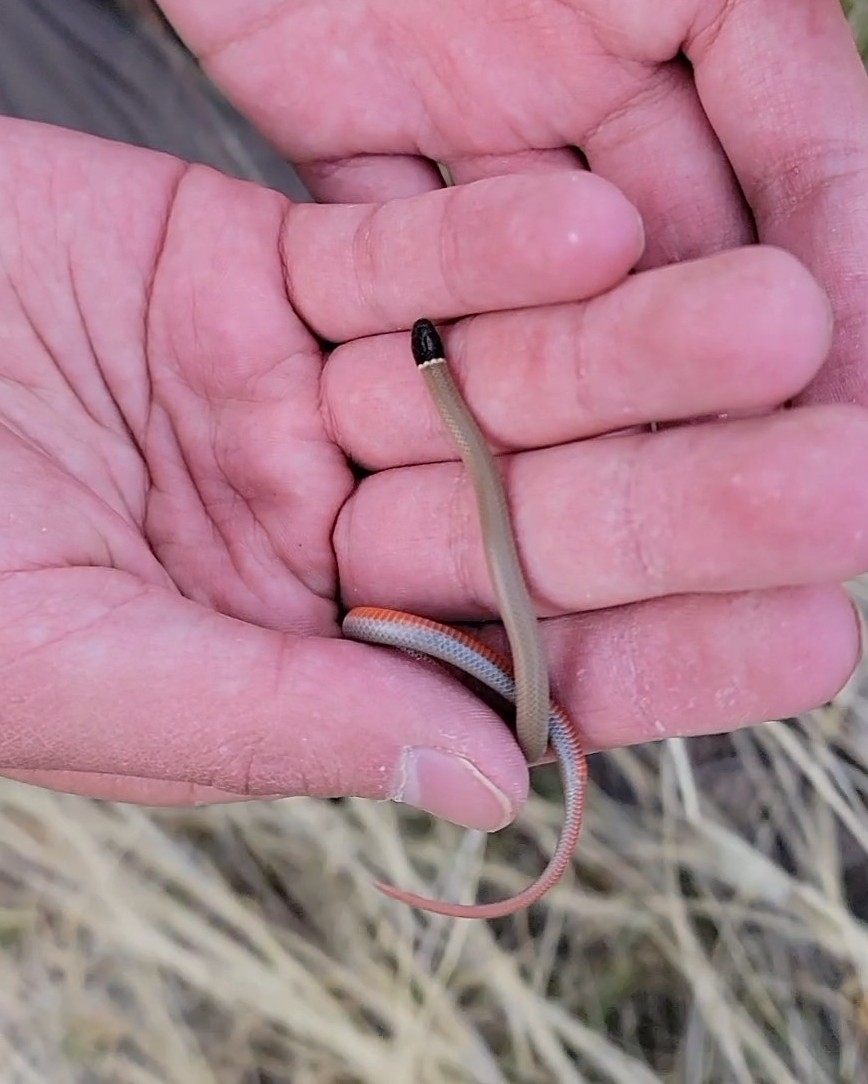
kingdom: Animalia
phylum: Chordata
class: Squamata
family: Colubridae
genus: Tantilla
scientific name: Tantilla yaquia
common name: Yaqui black-headed snake
